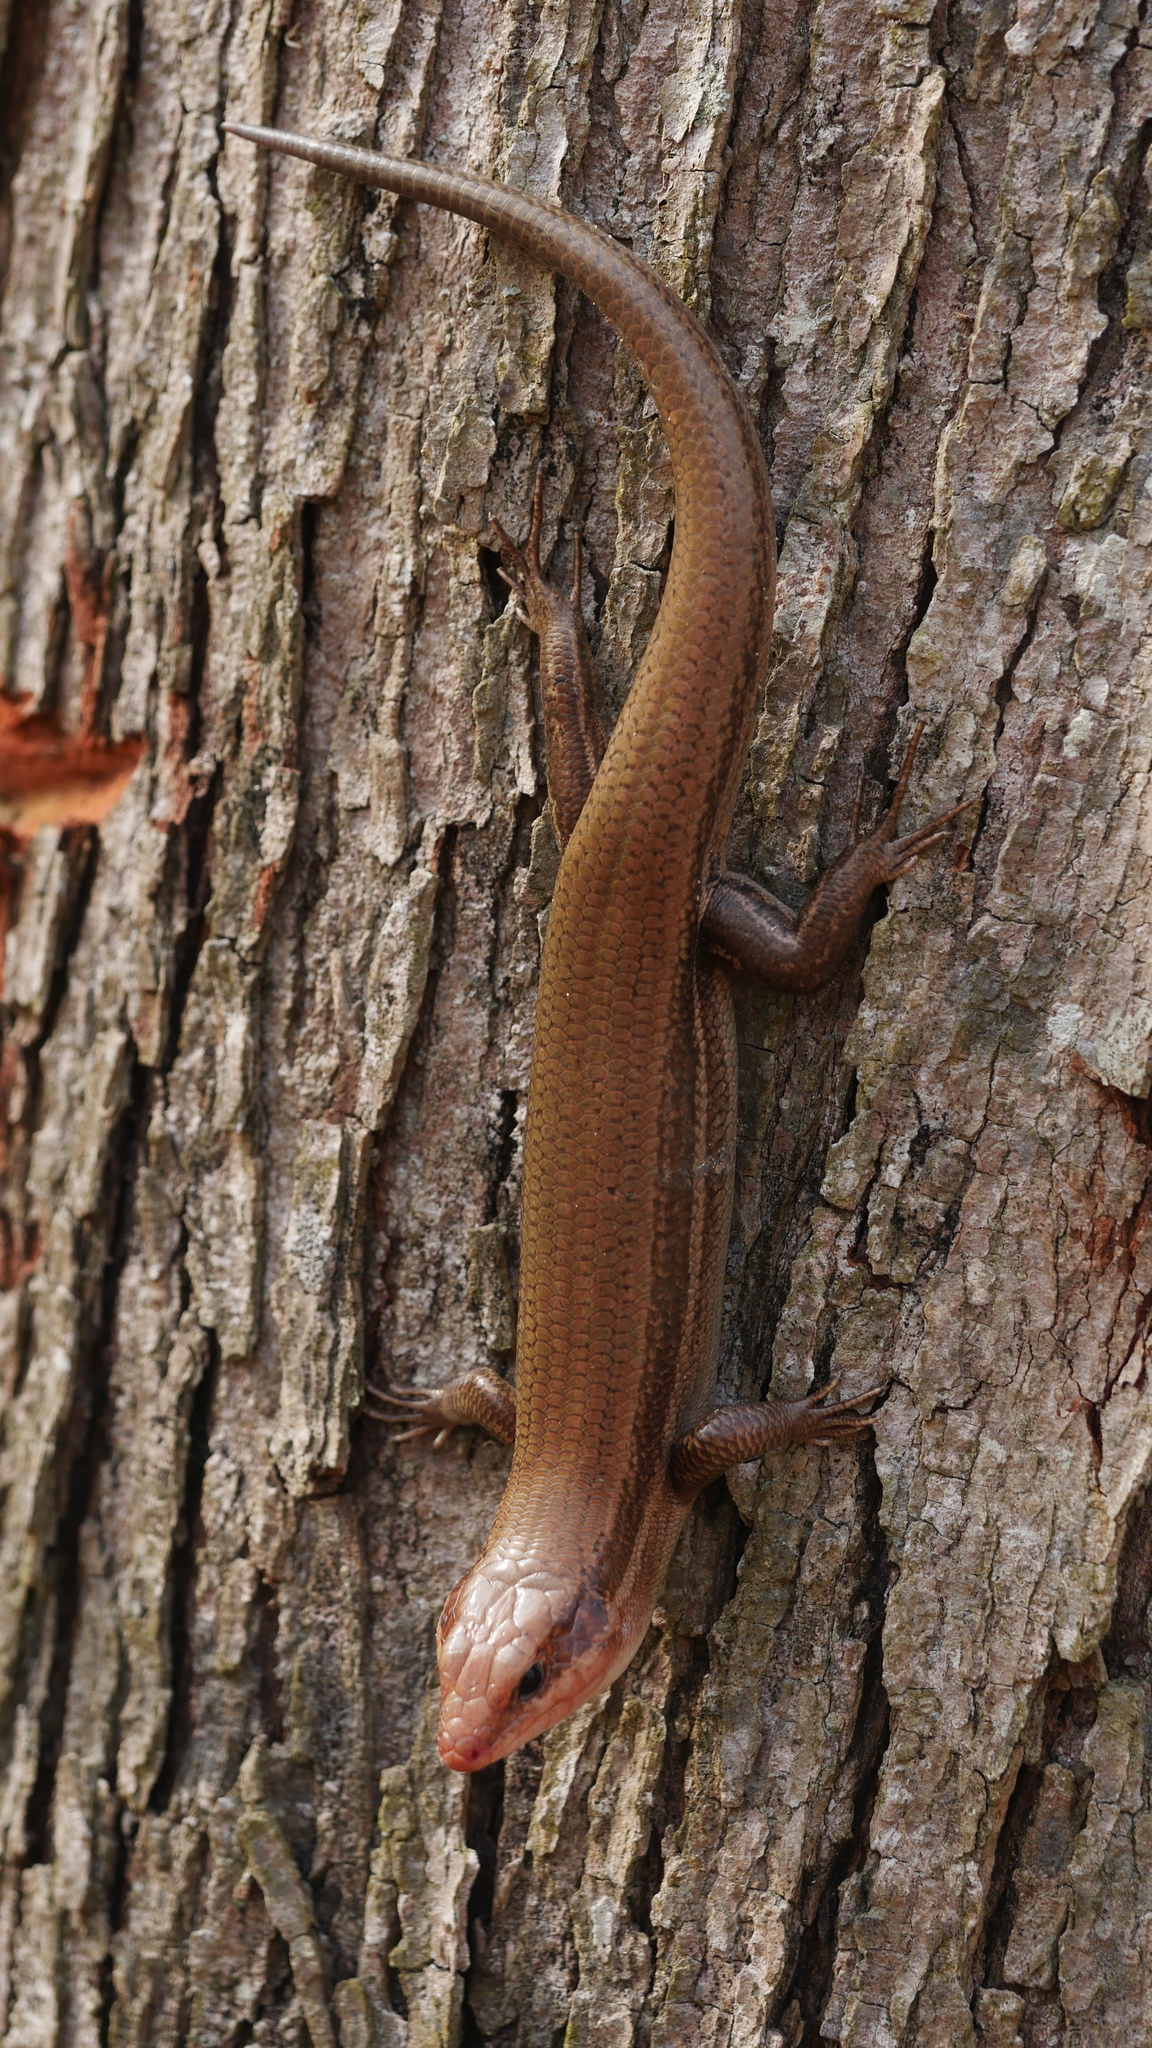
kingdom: Animalia
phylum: Chordata
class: Squamata
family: Scincidae
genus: Plestiodon
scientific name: Plestiodon laticeps
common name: Broadhead skink
